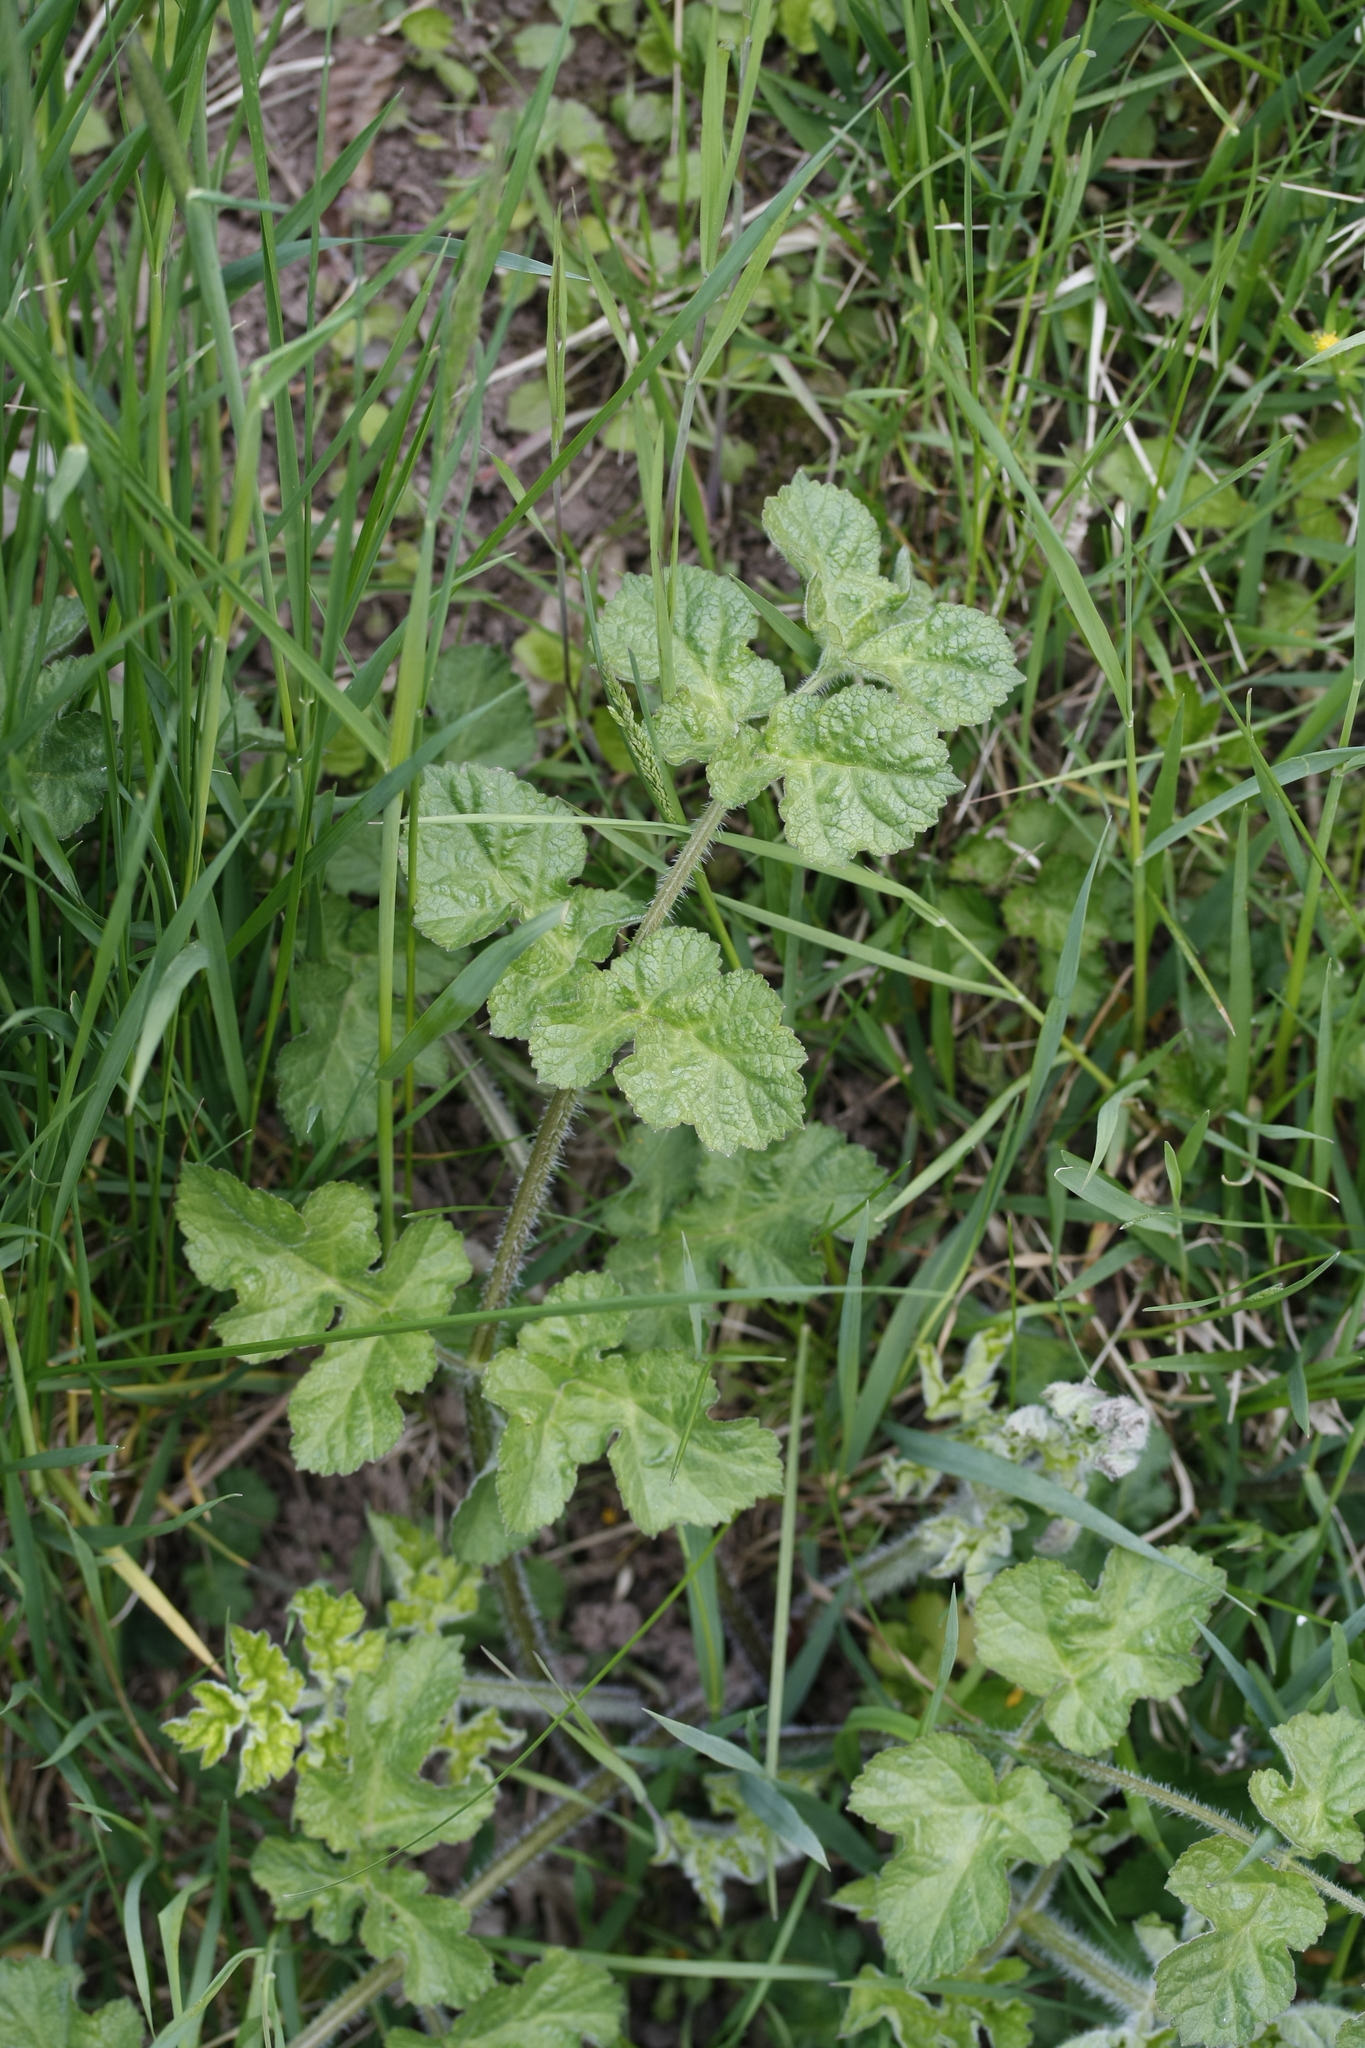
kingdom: Plantae
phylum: Tracheophyta
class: Magnoliopsida
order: Apiales
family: Apiaceae
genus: Heracleum
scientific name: Heracleum sphondylium
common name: Hogweed
